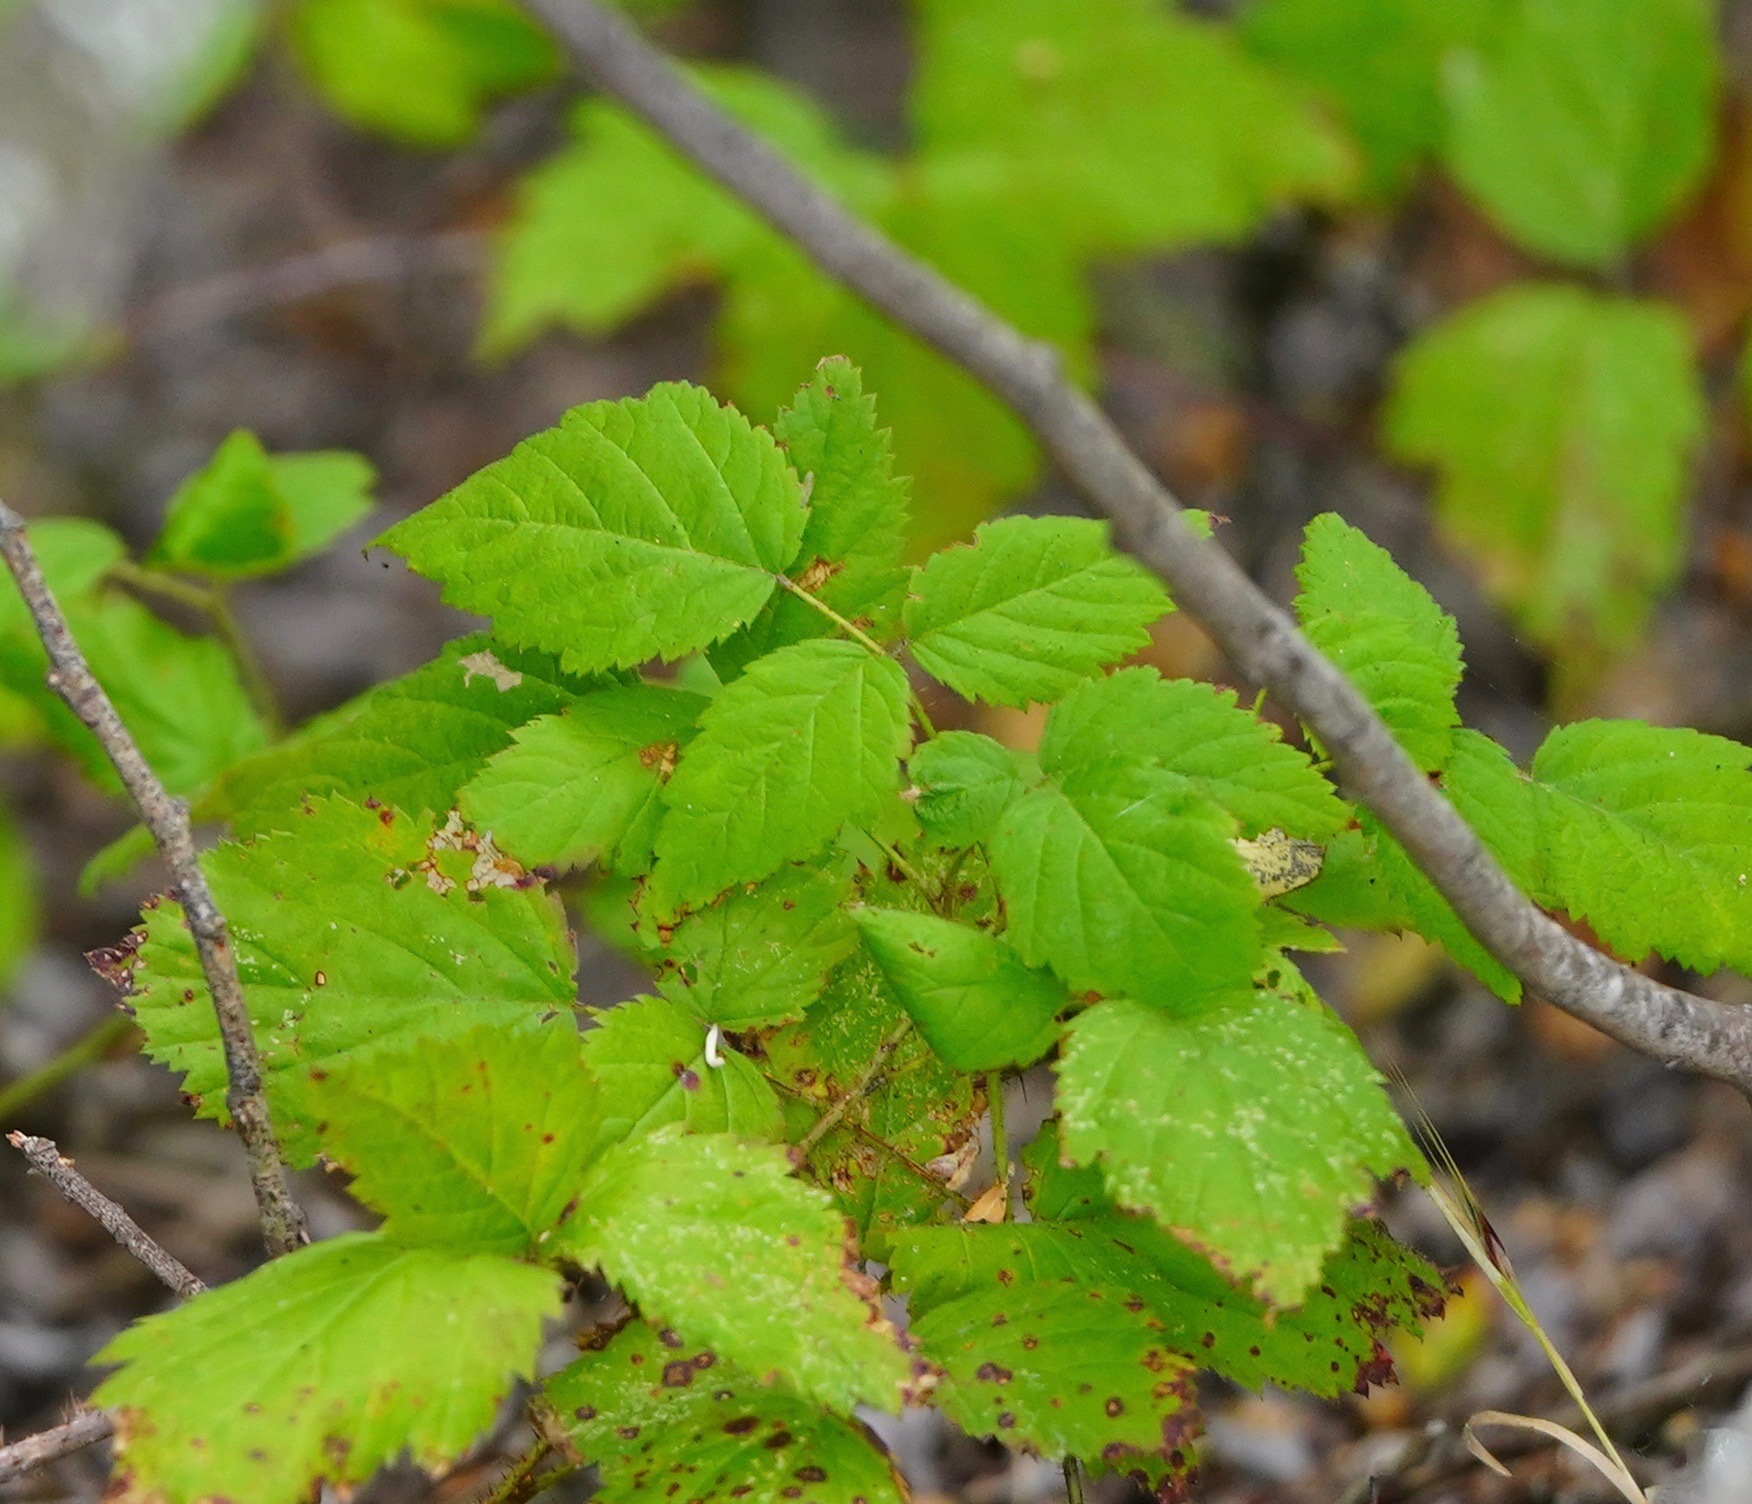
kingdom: Plantae
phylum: Tracheophyta
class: Magnoliopsida
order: Rosales
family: Rosaceae
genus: Rubus
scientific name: Rubus ursinus
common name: Pacific blackberry
